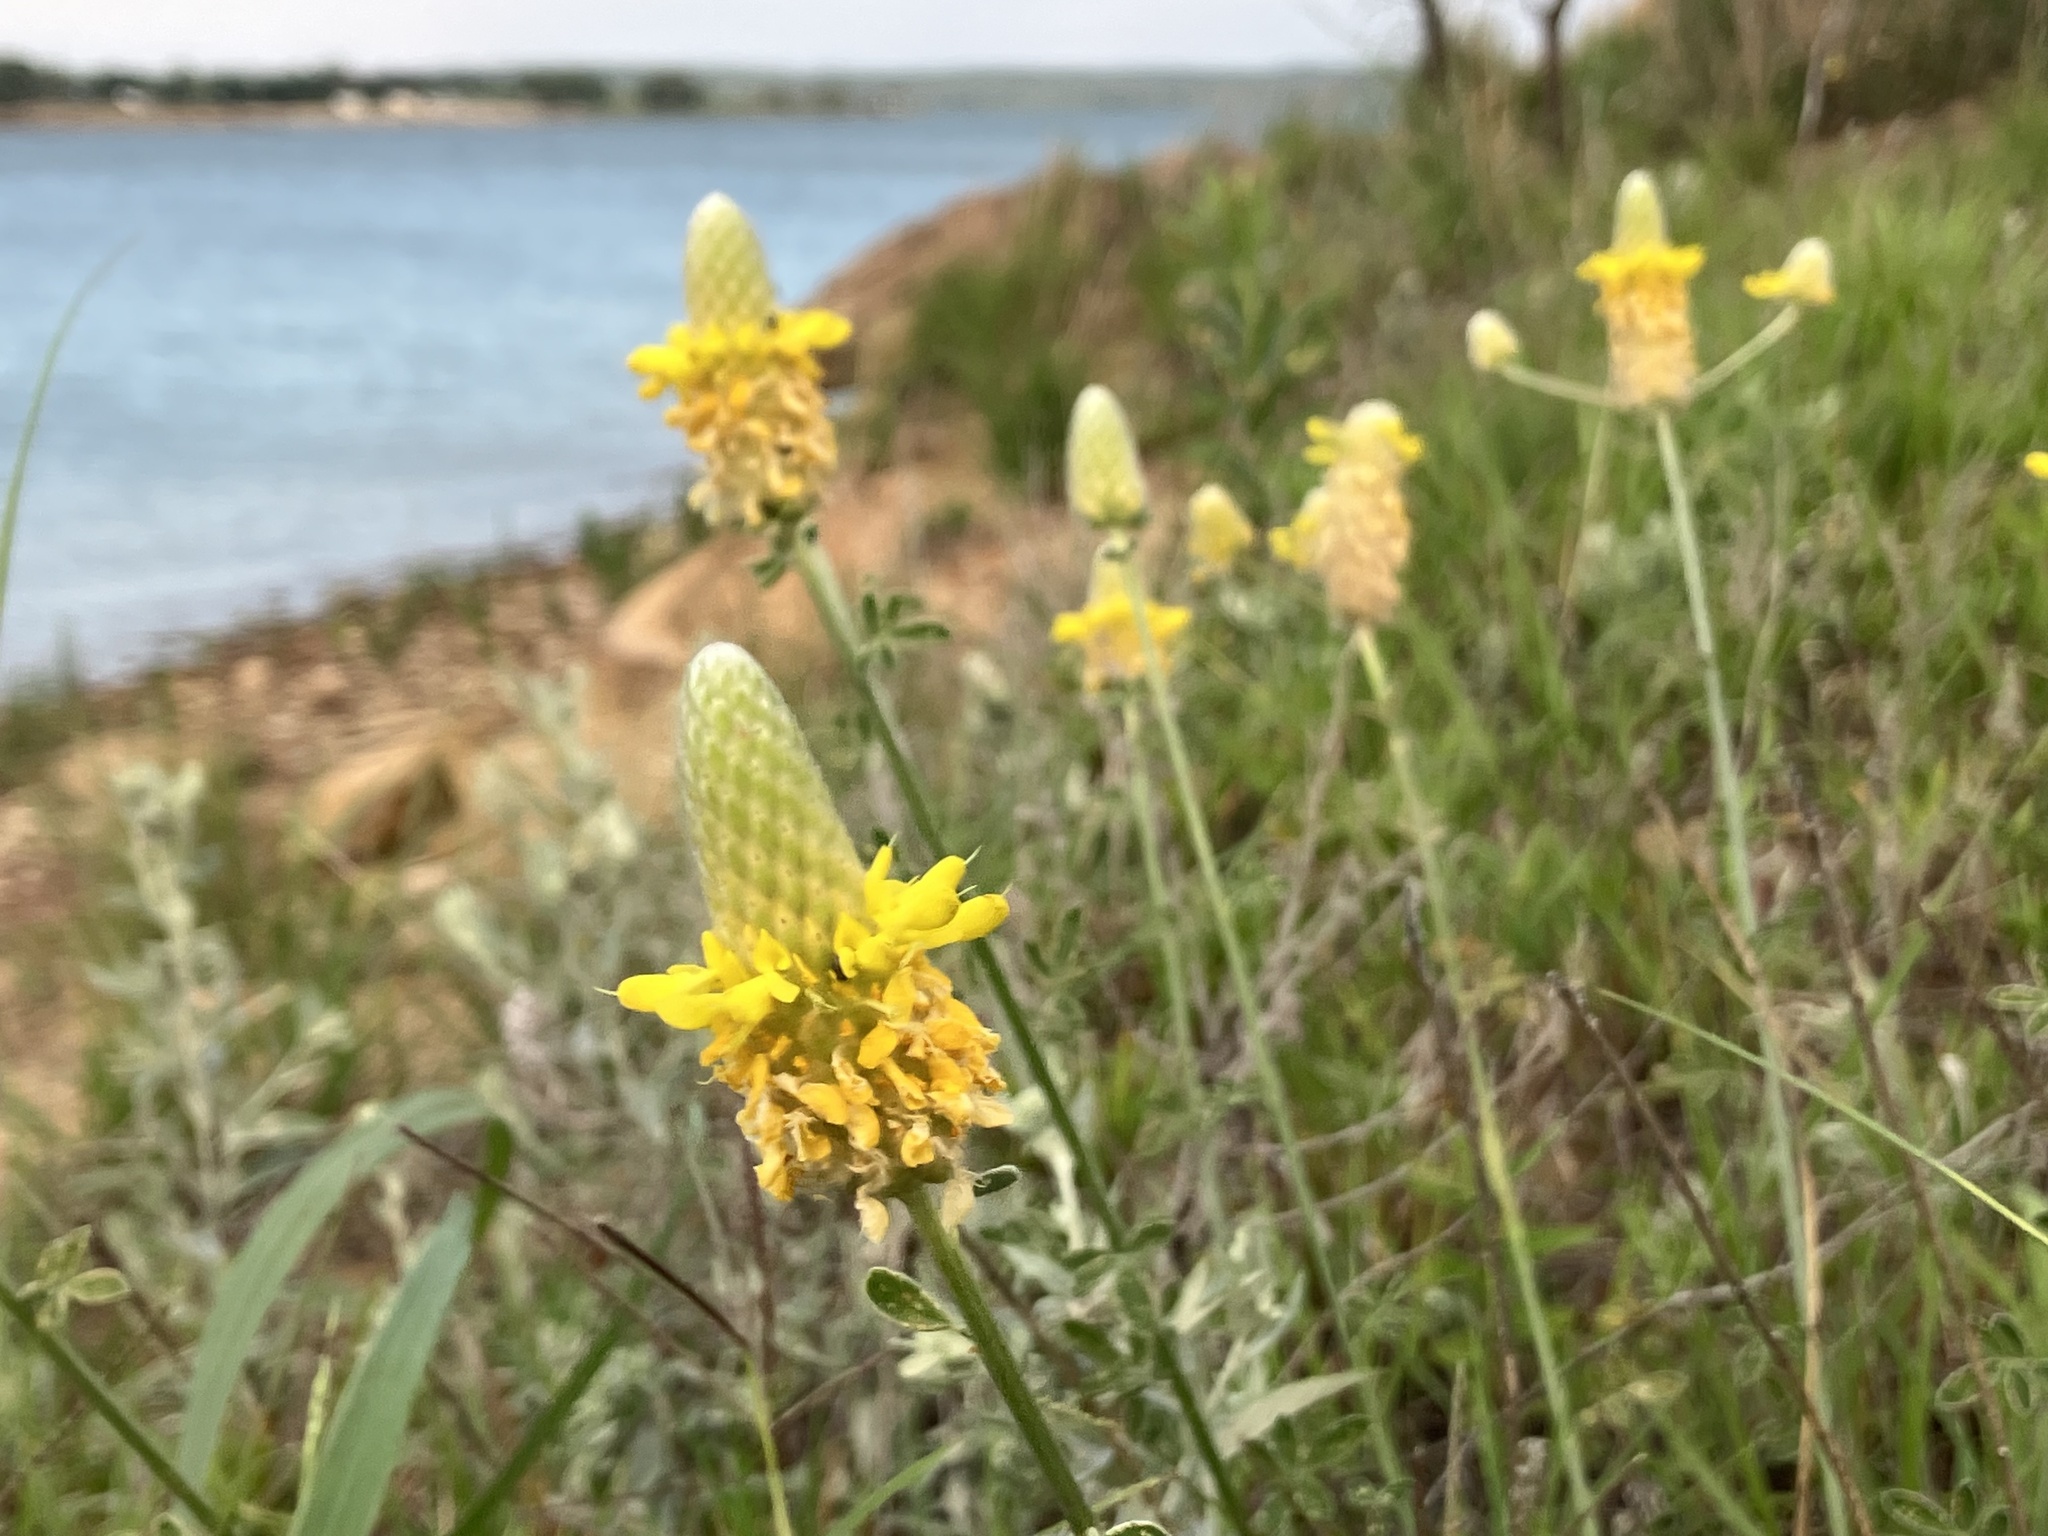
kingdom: Plantae
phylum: Tracheophyta
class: Magnoliopsida
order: Fabales
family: Fabaceae
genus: Dalea
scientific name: Dalea aurea
